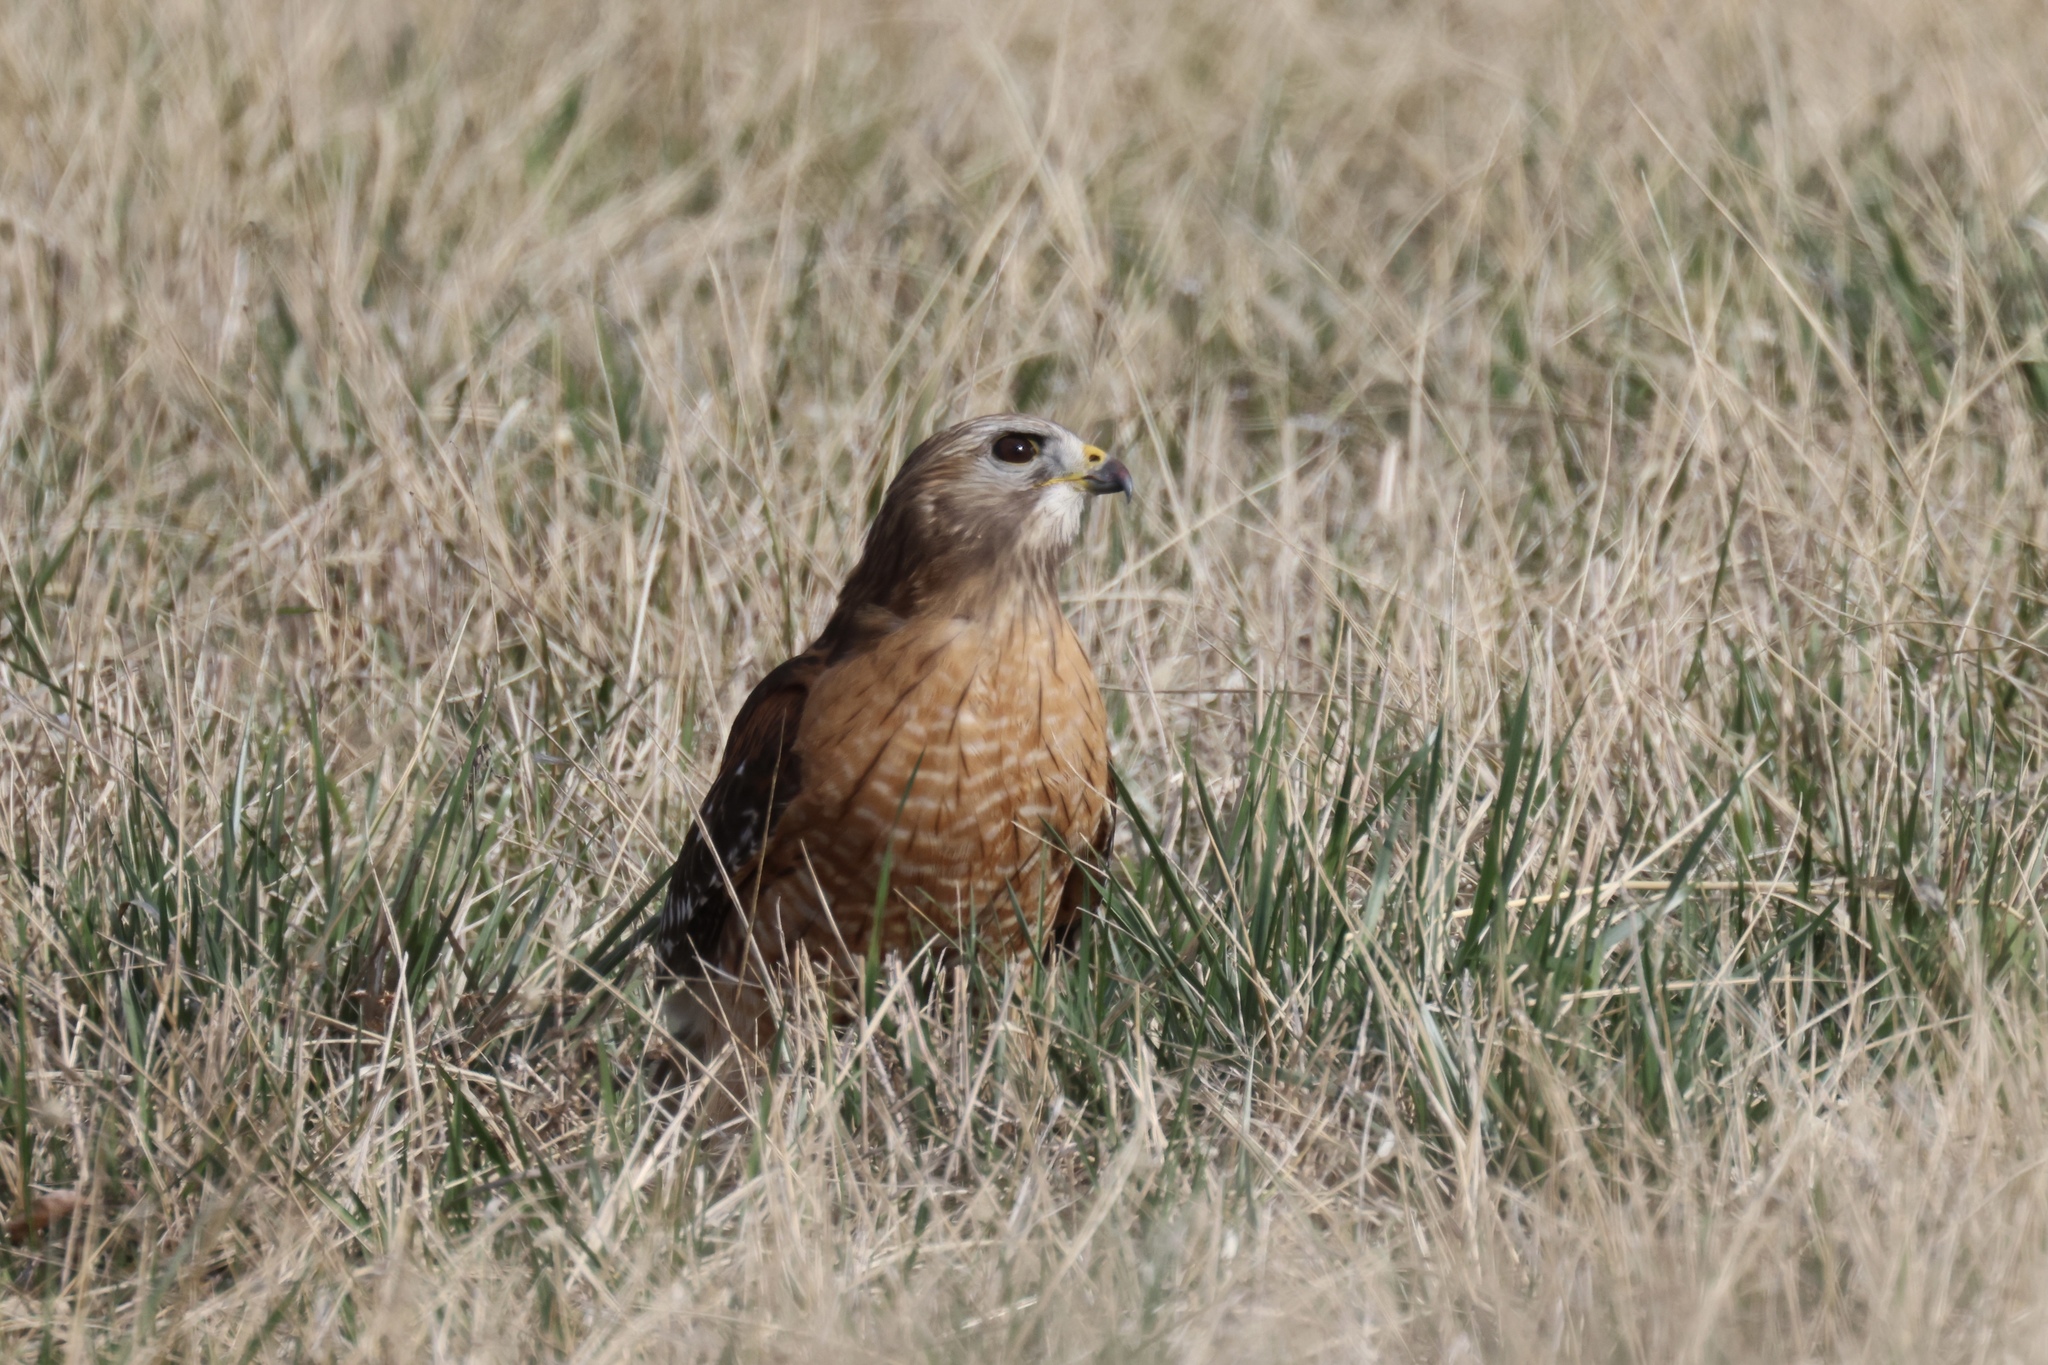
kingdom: Animalia
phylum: Chordata
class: Aves
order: Accipitriformes
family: Accipitridae
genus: Buteo
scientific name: Buteo lineatus
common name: Red-shouldered hawk
